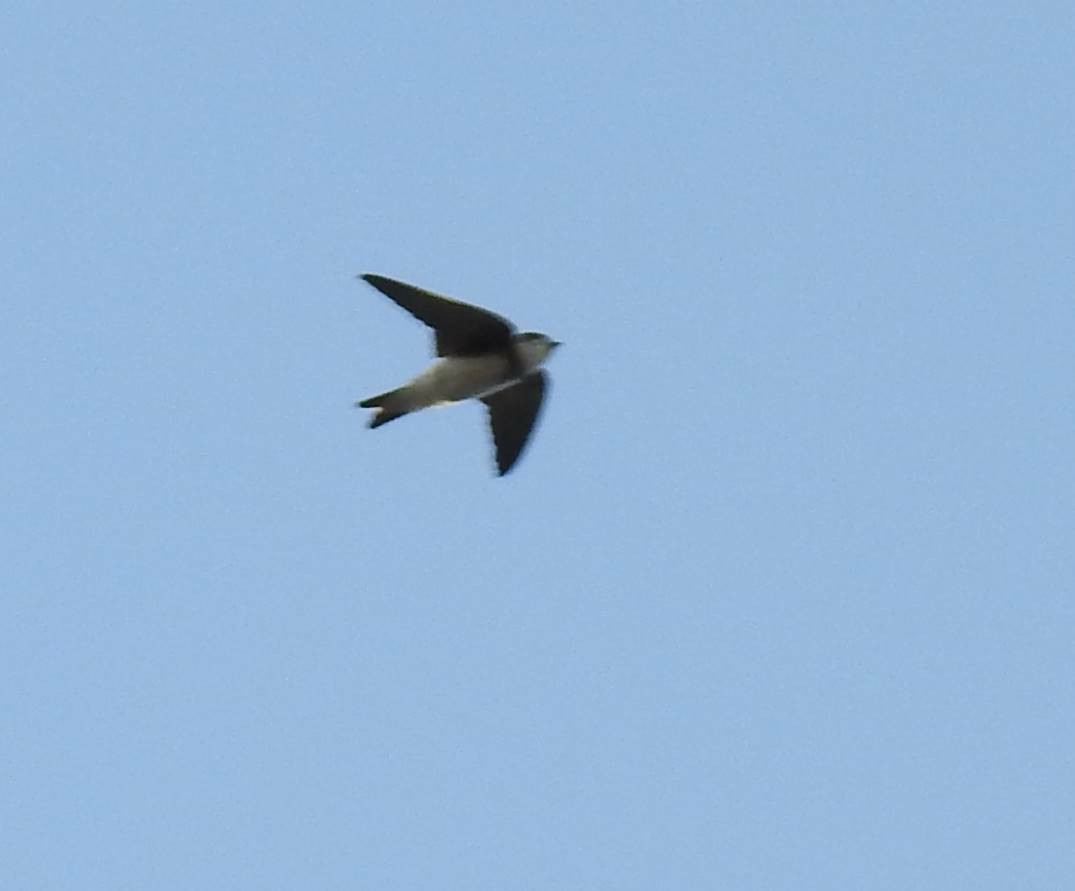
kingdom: Animalia
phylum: Chordata
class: Aves
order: Passeriformes
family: Hirundinidae
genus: Riparia
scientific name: Riparia riparia
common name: Sand martin
